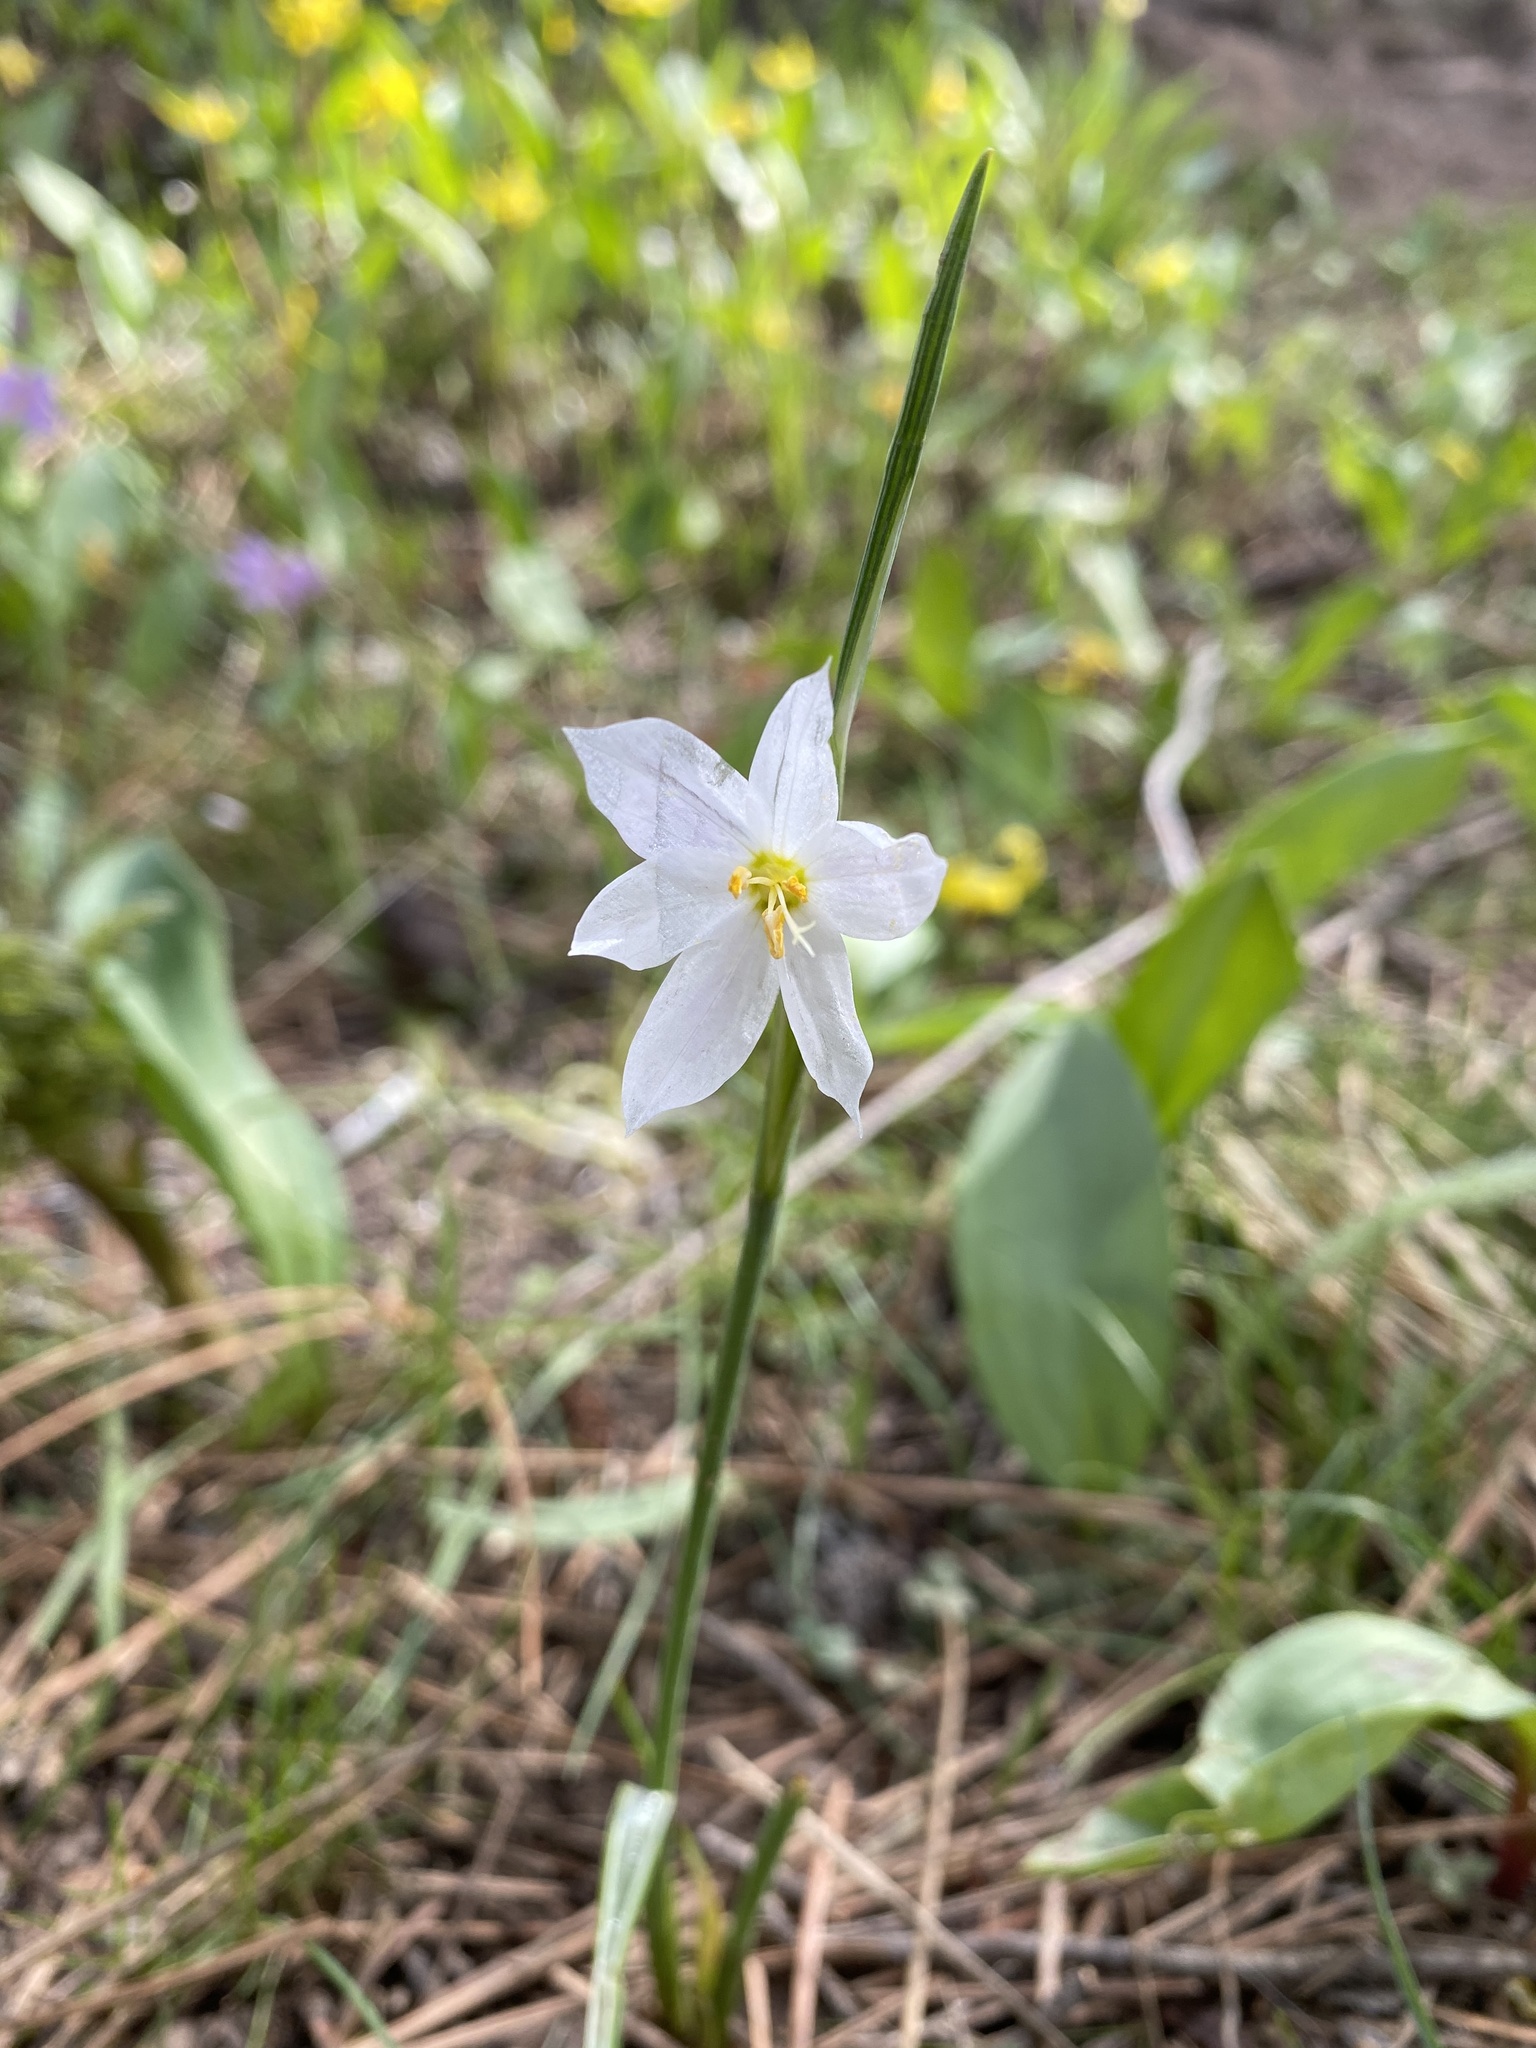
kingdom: Plantae
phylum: Tracheophyta
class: Liliopsida
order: Asparagales
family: Iridaceae
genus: Olsynium
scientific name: Olsynium douglasii
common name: Douglas' grasswidow
